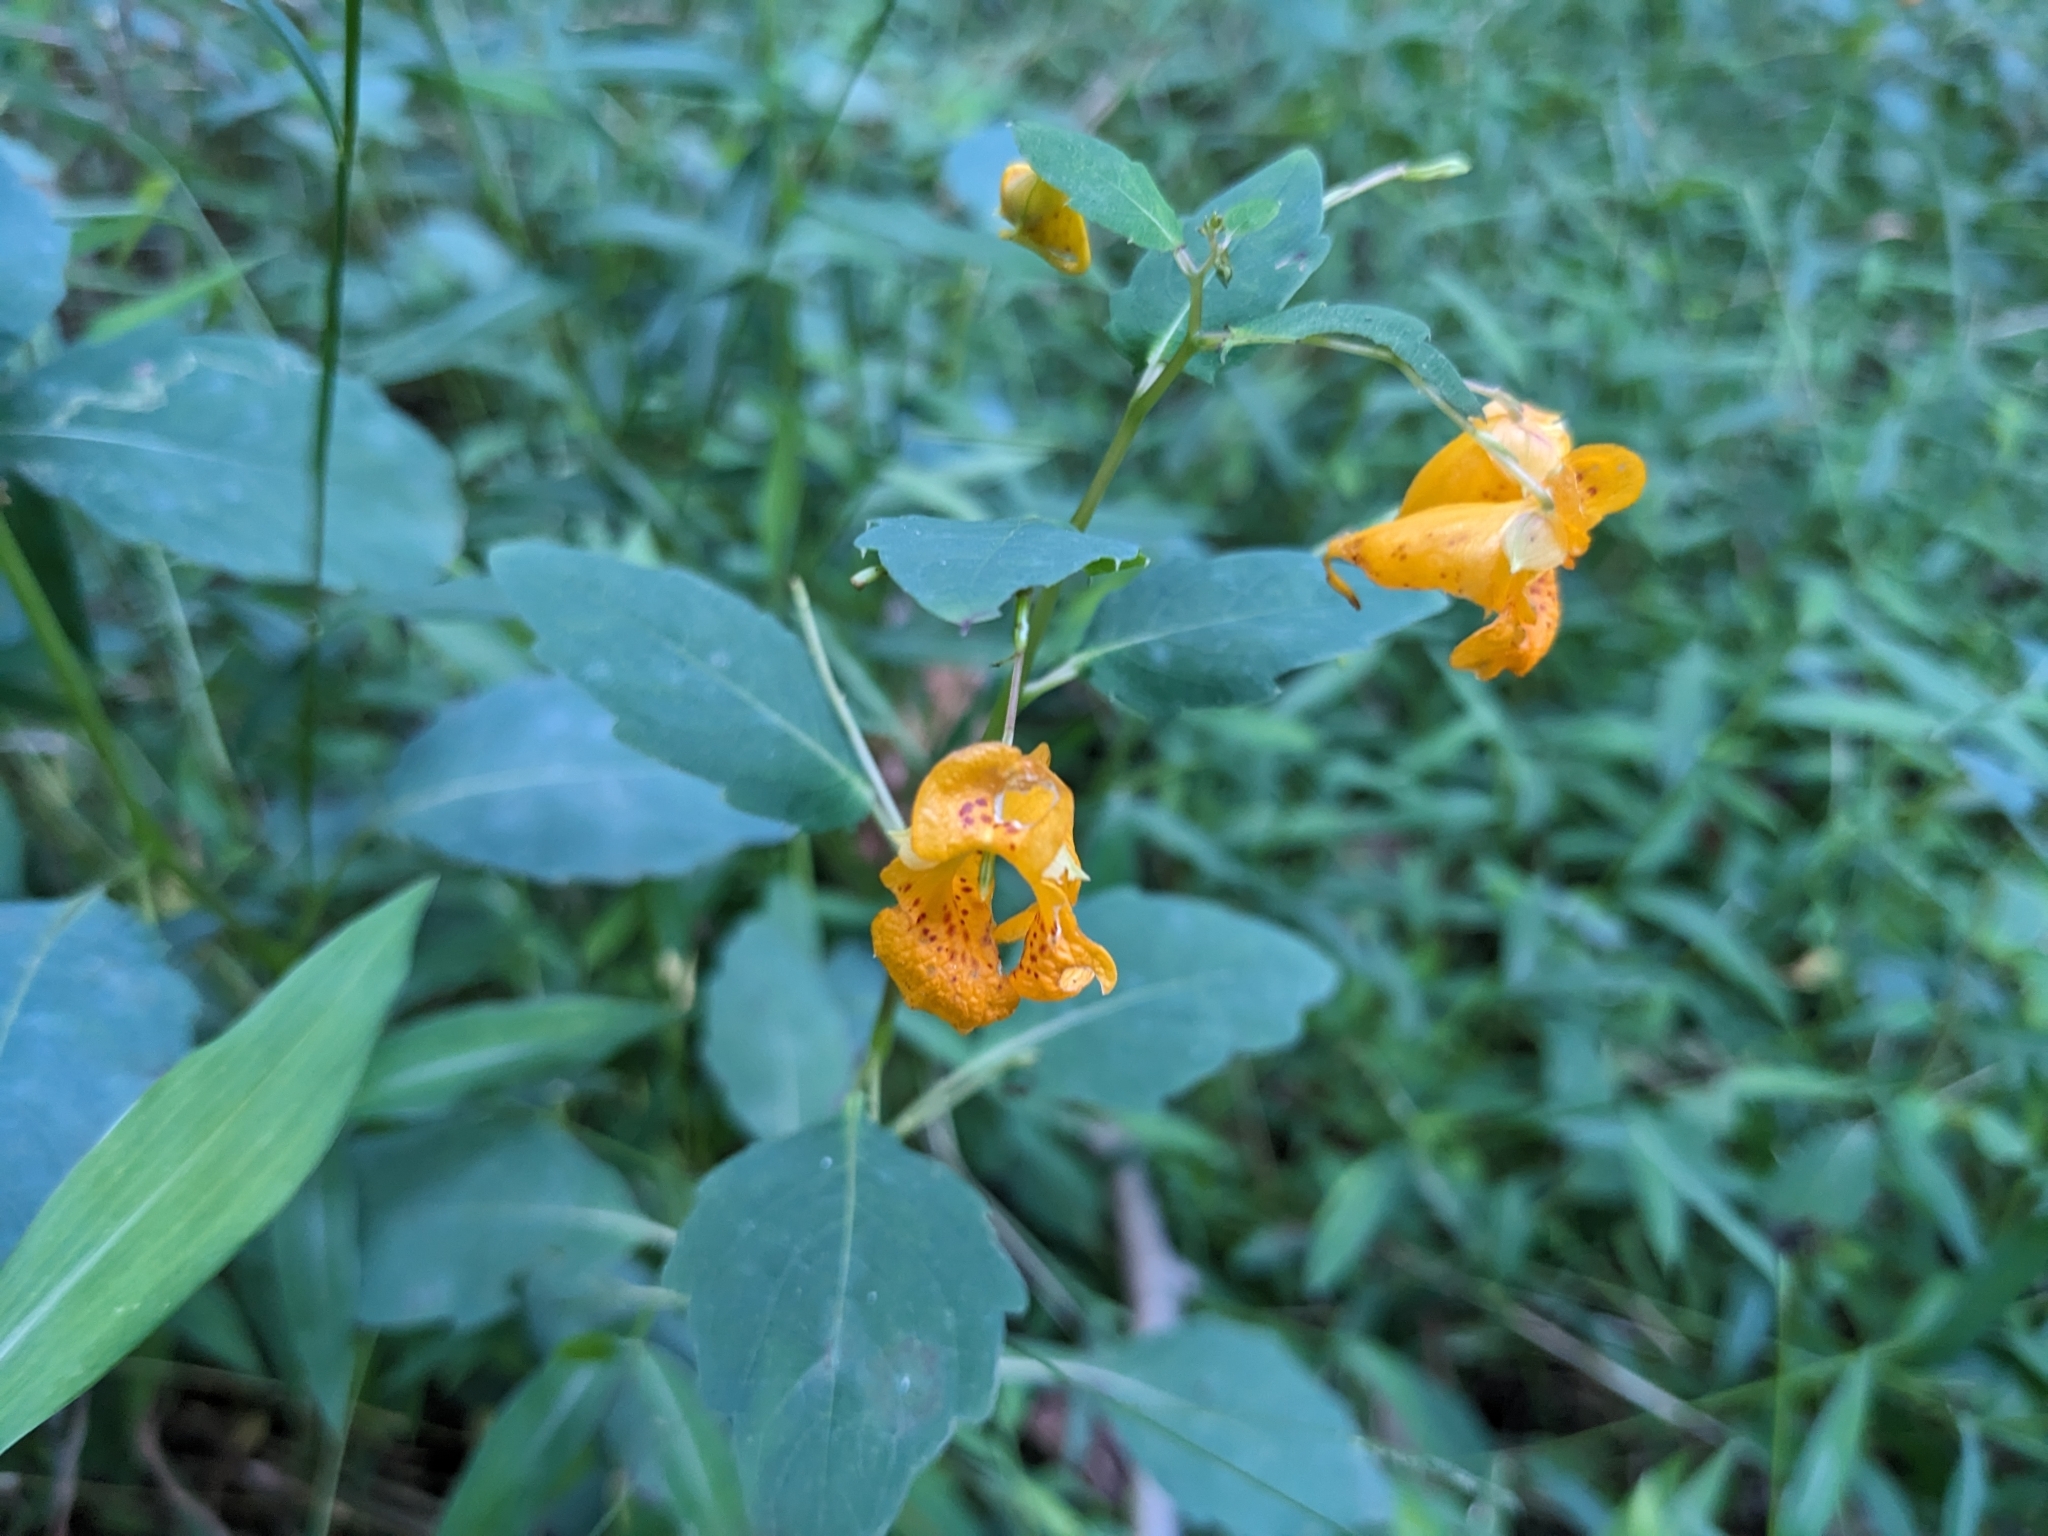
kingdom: Plantae
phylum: Tracheophyta
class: Magnoliopsida
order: Ericales
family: Balsaminaceae
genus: Impatiens
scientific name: Impatiens capensis
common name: Orange balsam
